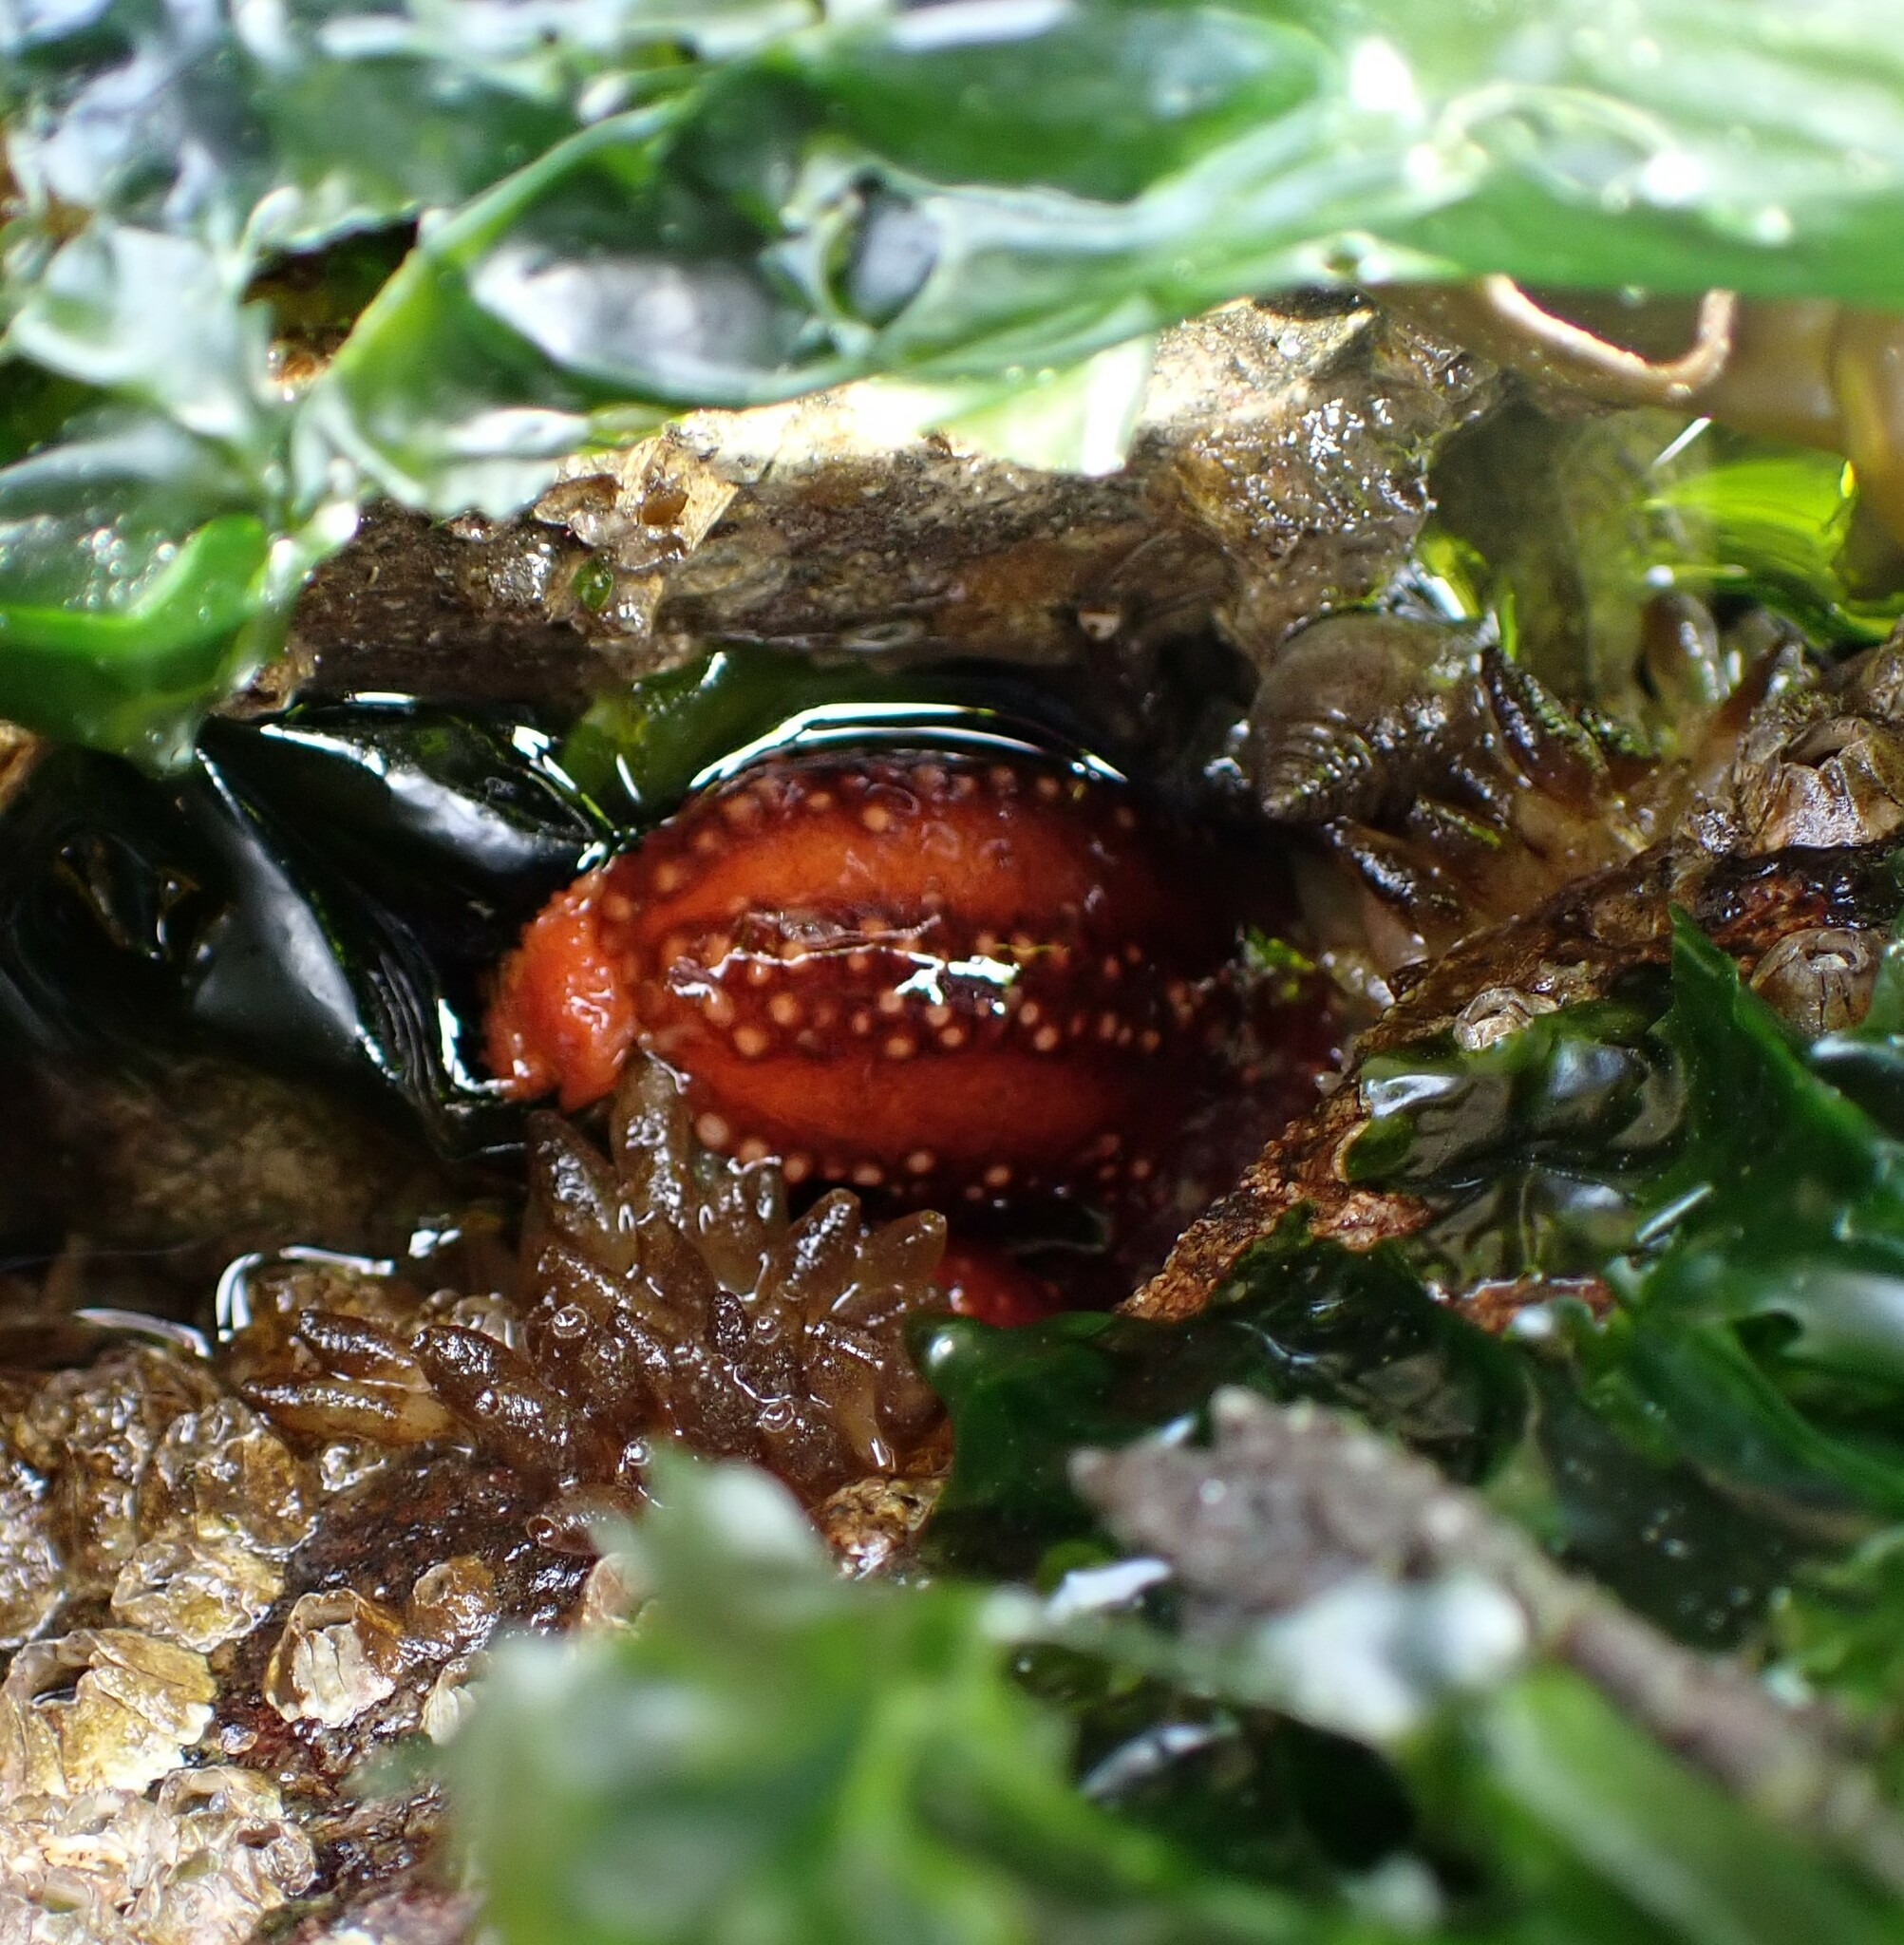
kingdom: Animalia
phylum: Echinodermata
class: Holothuroidea
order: Dendrochirotida
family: Cucumariidae
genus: Cucumaria
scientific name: Cucumaria miniata
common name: Orange sea cucumber
